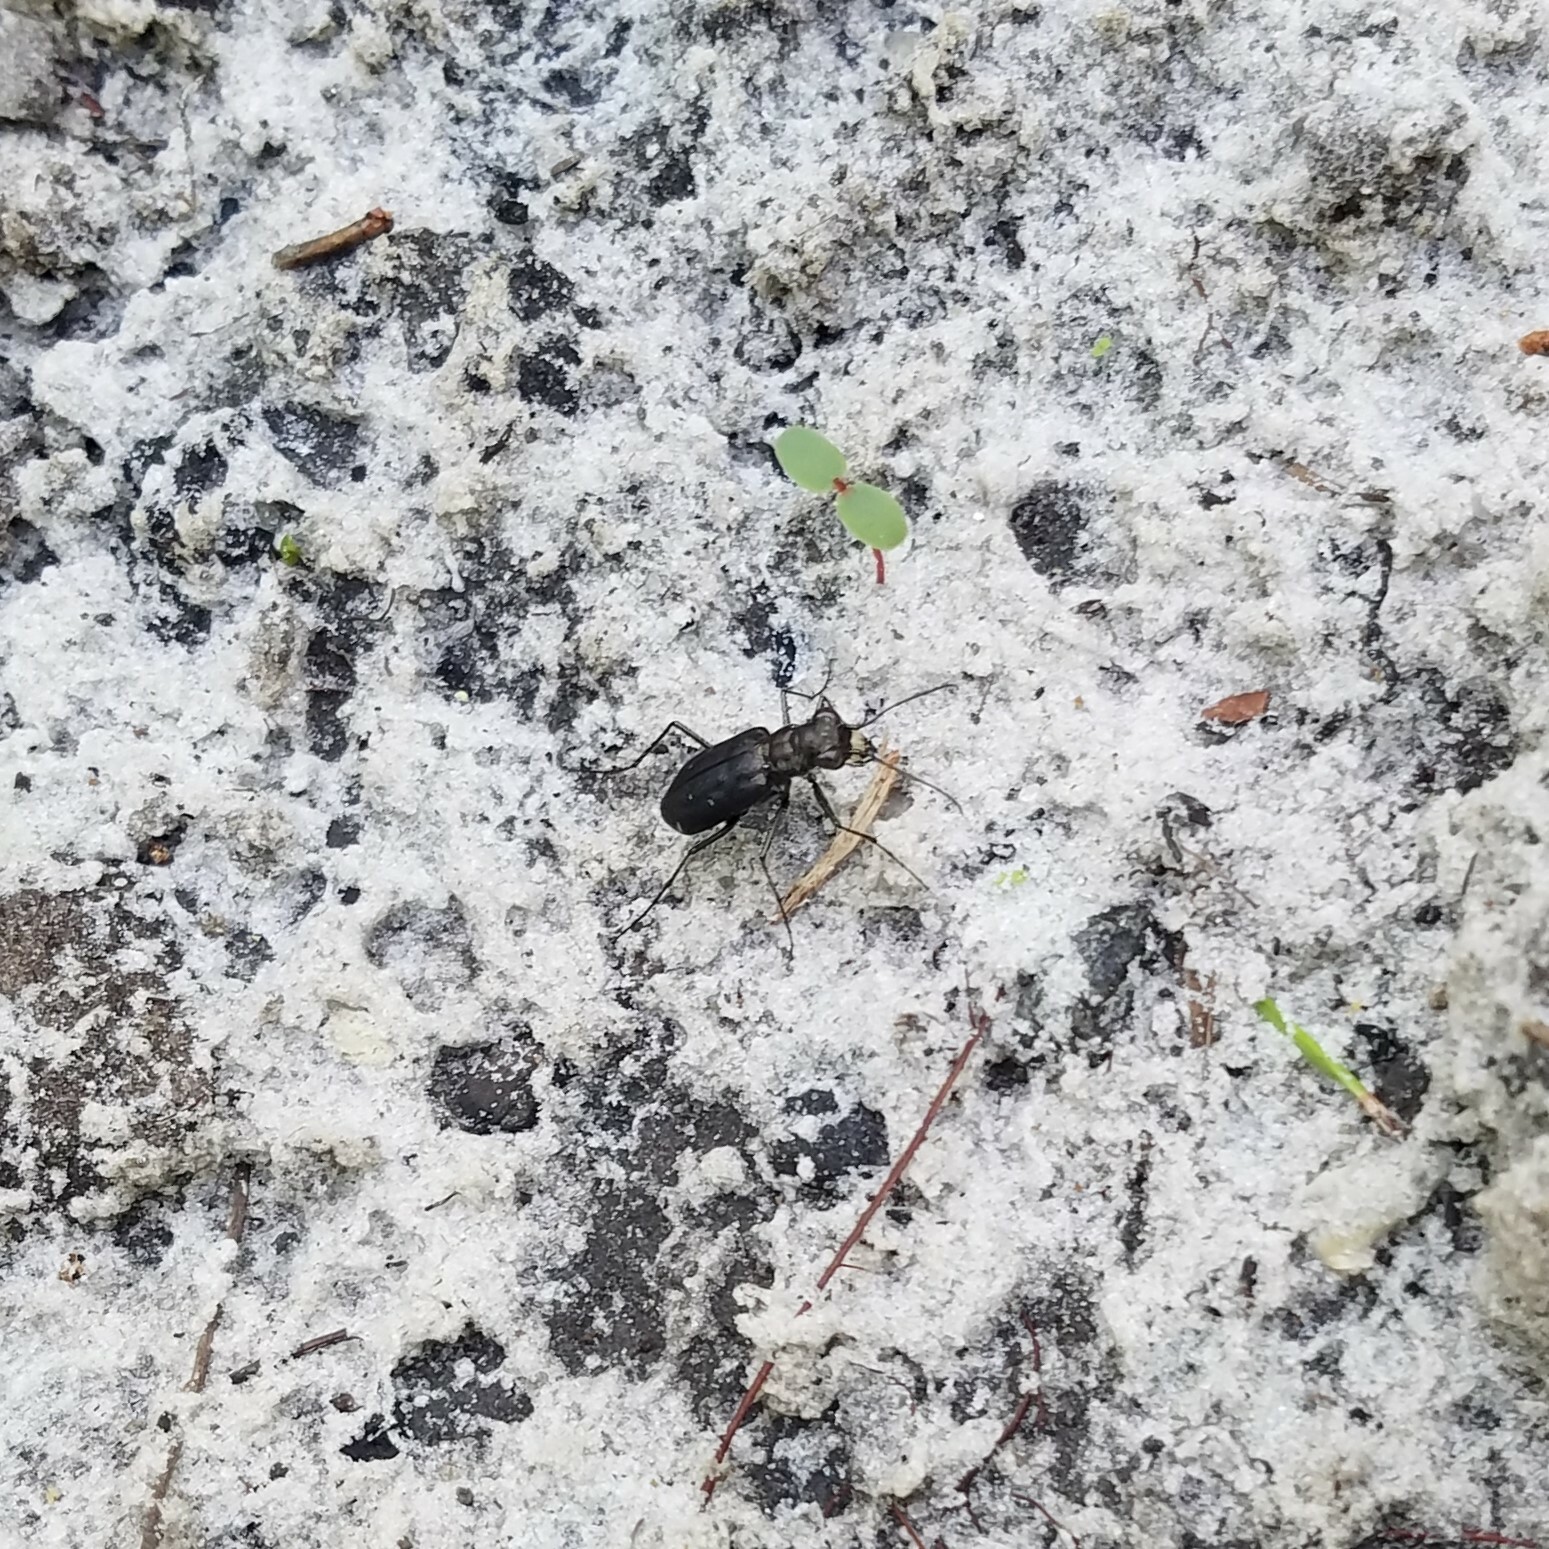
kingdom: Animalia
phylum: Arthropoda
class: Insecta
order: Coleoptera
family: Carabidae
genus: Cicindela
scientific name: Cicindela punctulata
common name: Punctured tiger beetle
